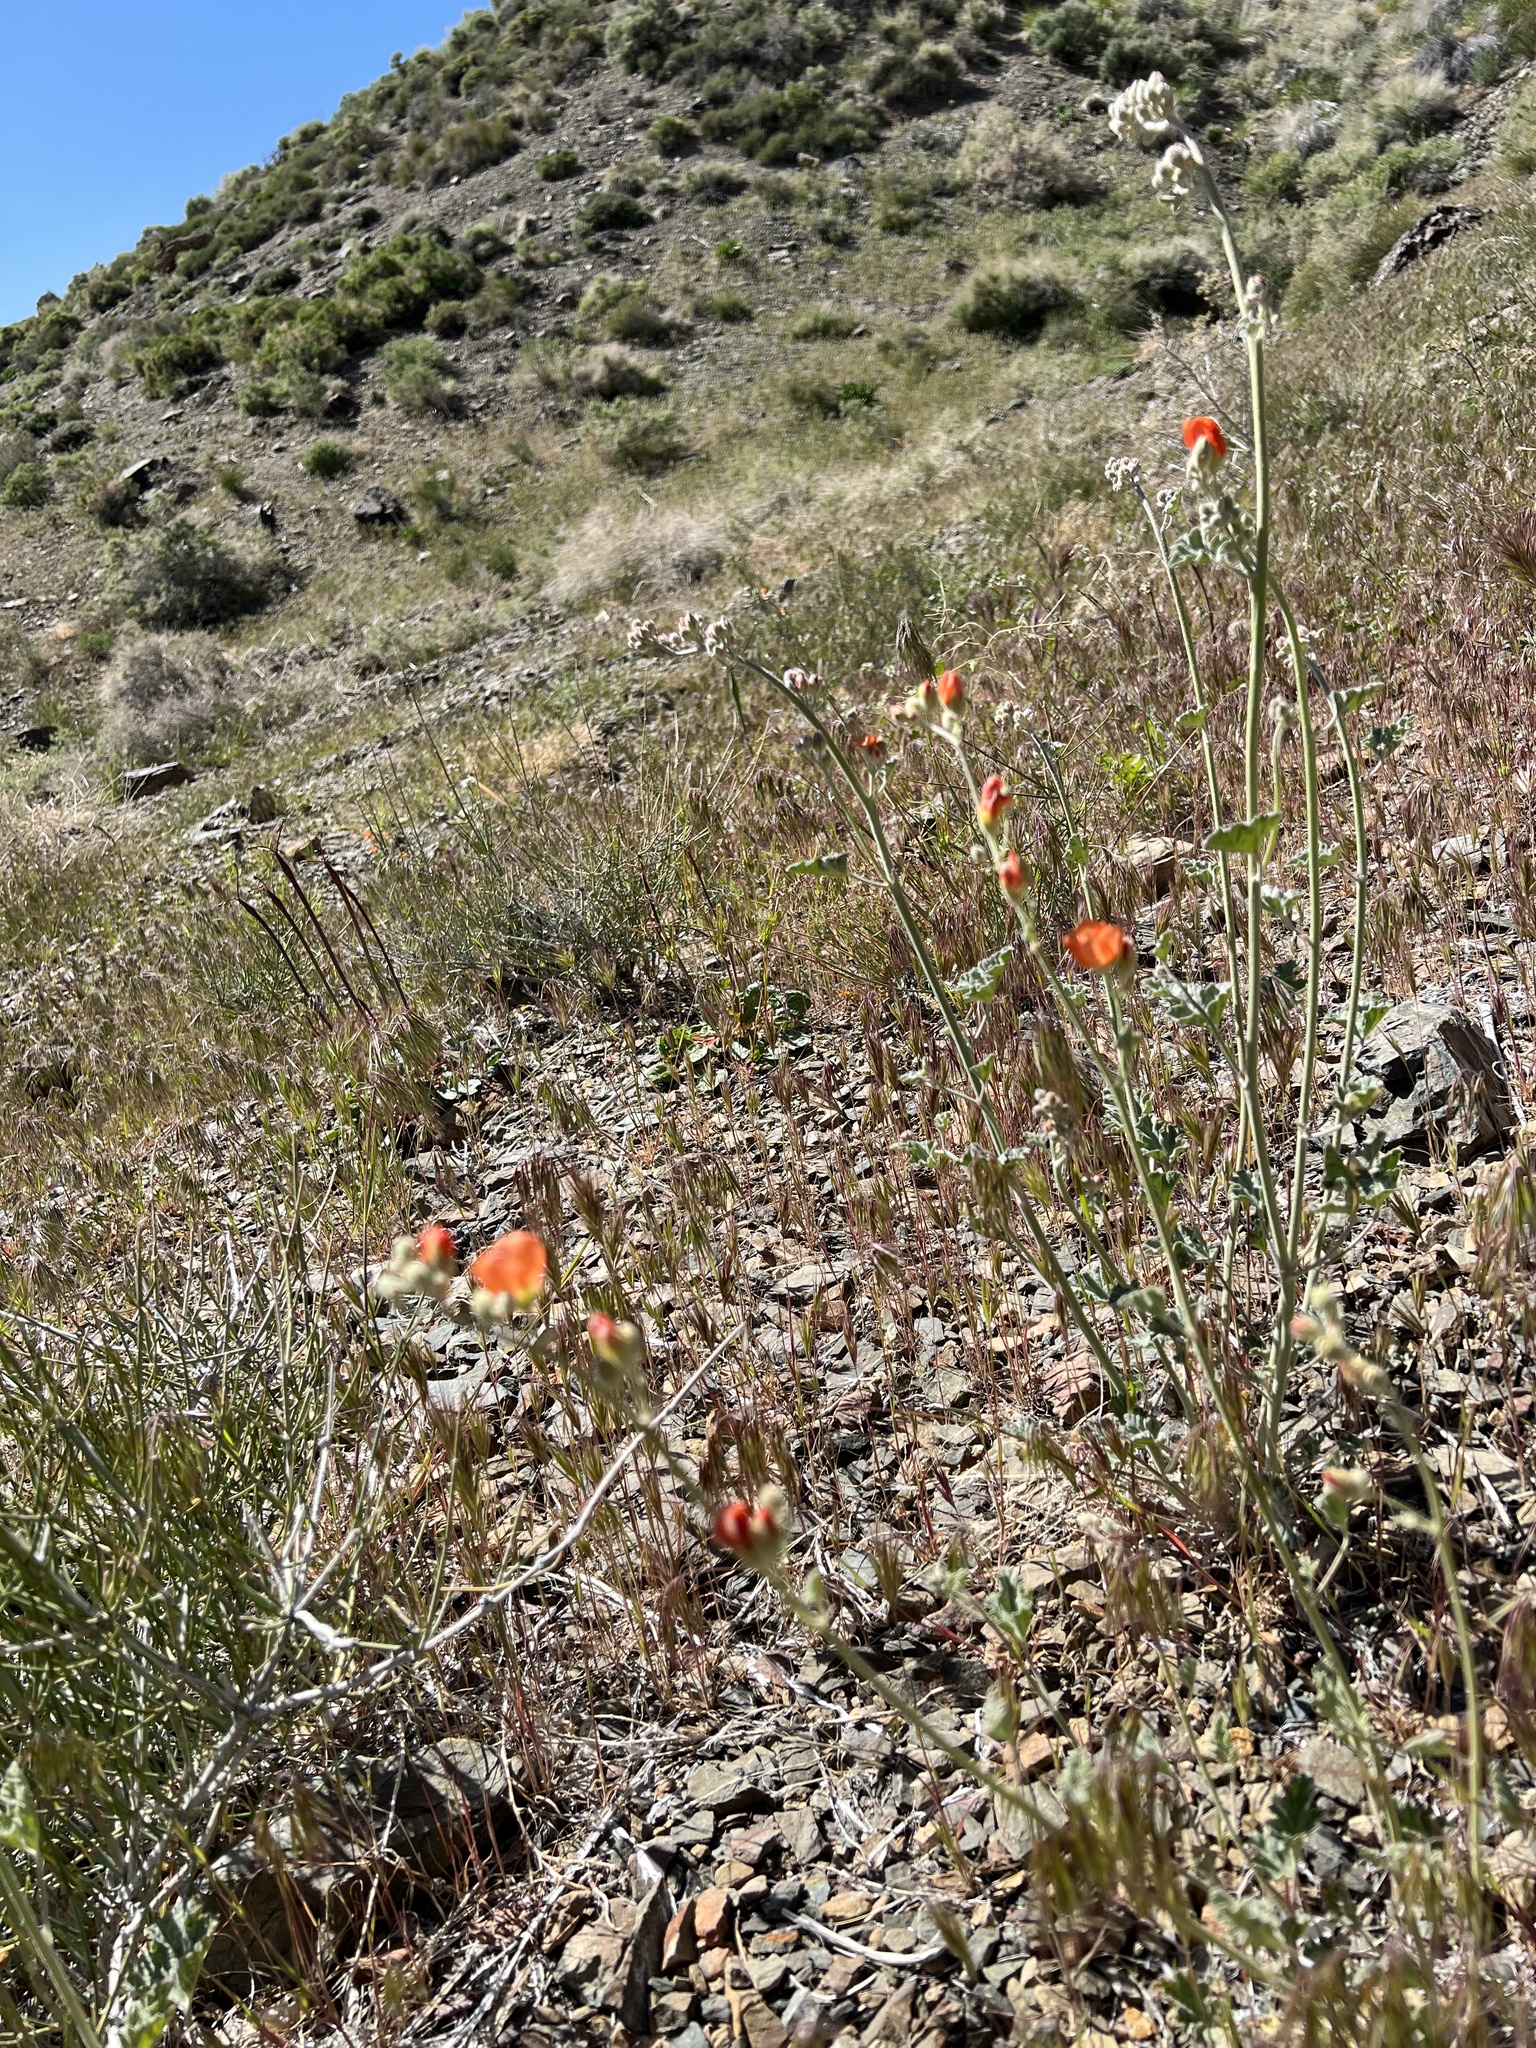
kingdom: Plantae
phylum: Tracheophyta
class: Magnoliopsida
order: Malvales
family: Malvaceae
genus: Sphaeralcea
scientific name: Sphaeralcea ambigua
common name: Apricot globe-mallow
